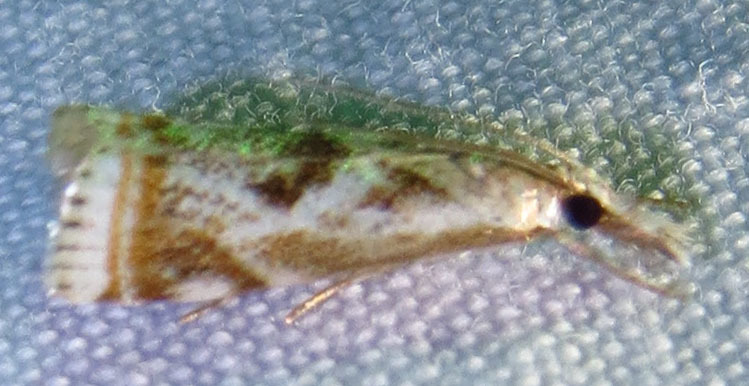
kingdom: Animalia
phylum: Arthropoda
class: Insecta
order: Lepidoptera
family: Crambidae
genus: Microcrambus
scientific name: Microcrambus elegans
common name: Elegant grass-veneer
